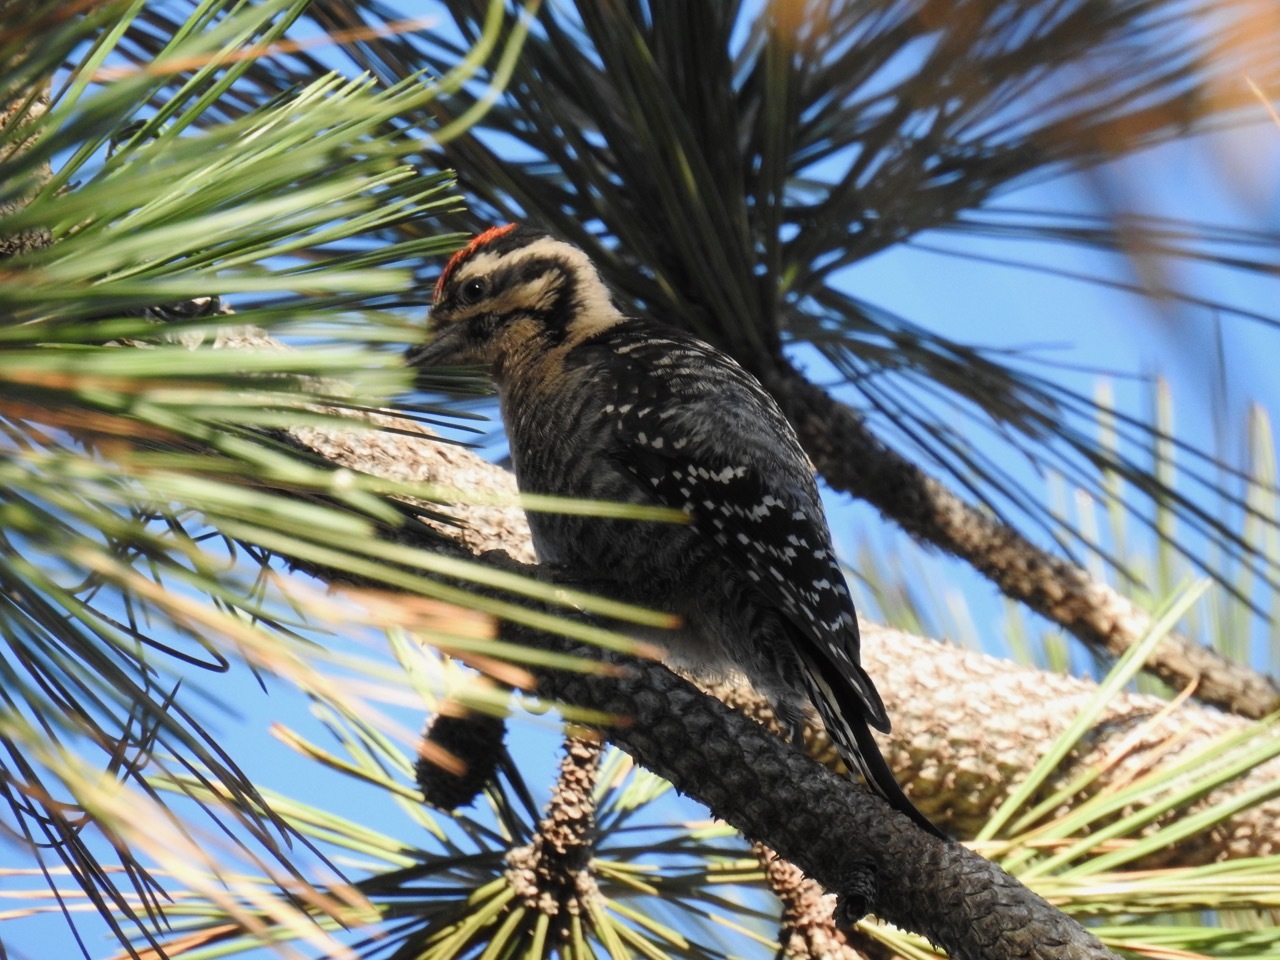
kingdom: Animalia
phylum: Chordata
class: Aves
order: Piciformes
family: Picidae
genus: Dryobates
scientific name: Dryobates scalaris
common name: Ladder-backed woodpecker
